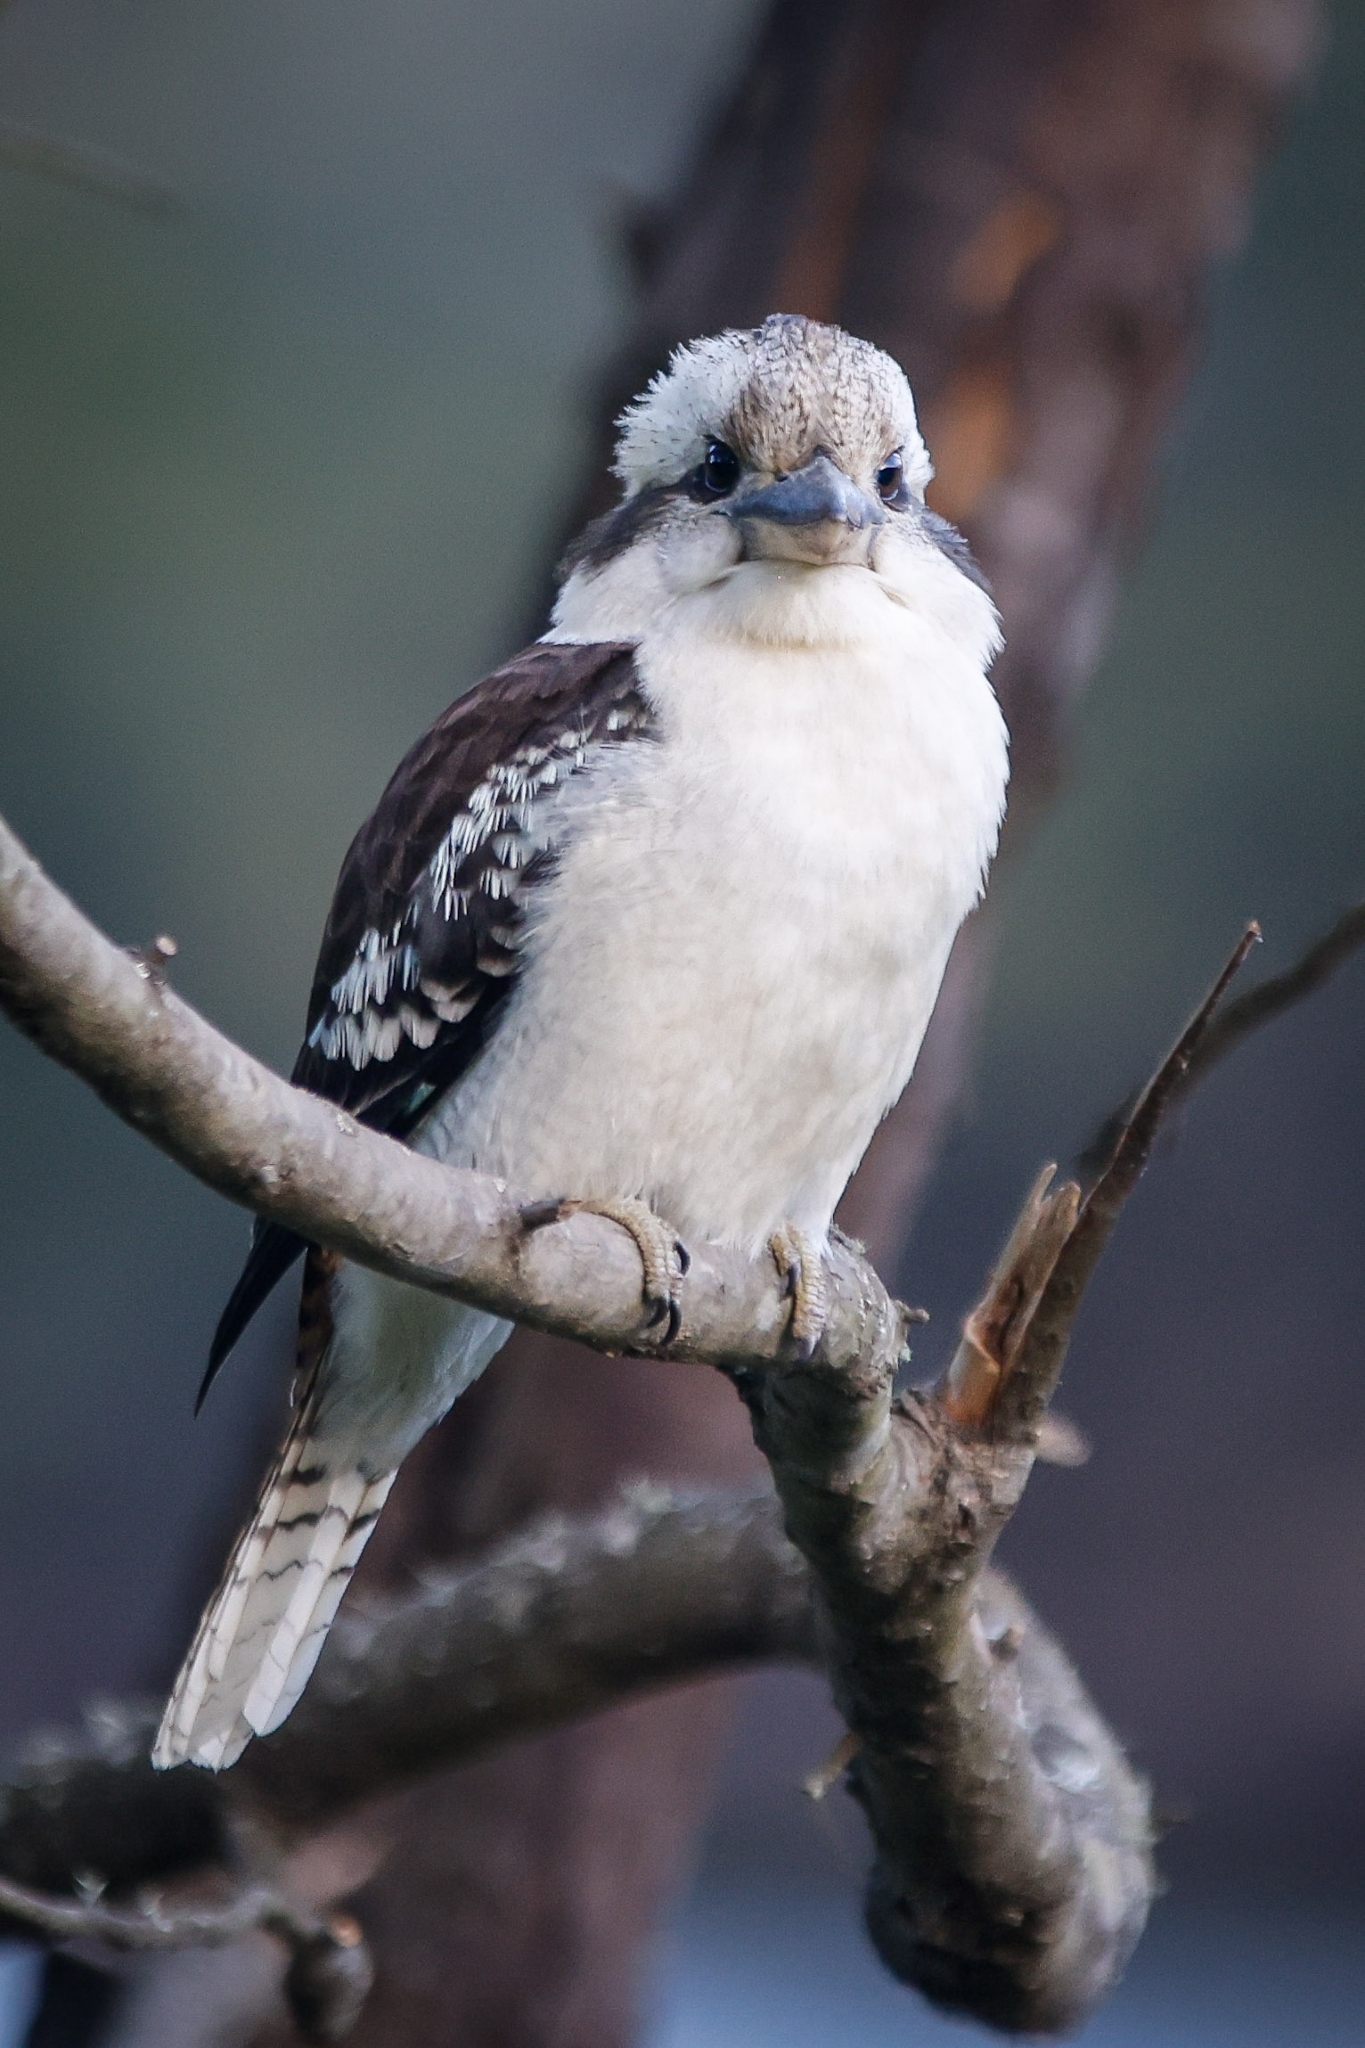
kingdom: Animalia
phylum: Chordata
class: Aves
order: Coraciiformes
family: Alcedinidae
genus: Dacelo
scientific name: Dacelo novaeguineae
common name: Laughing kookaburra
